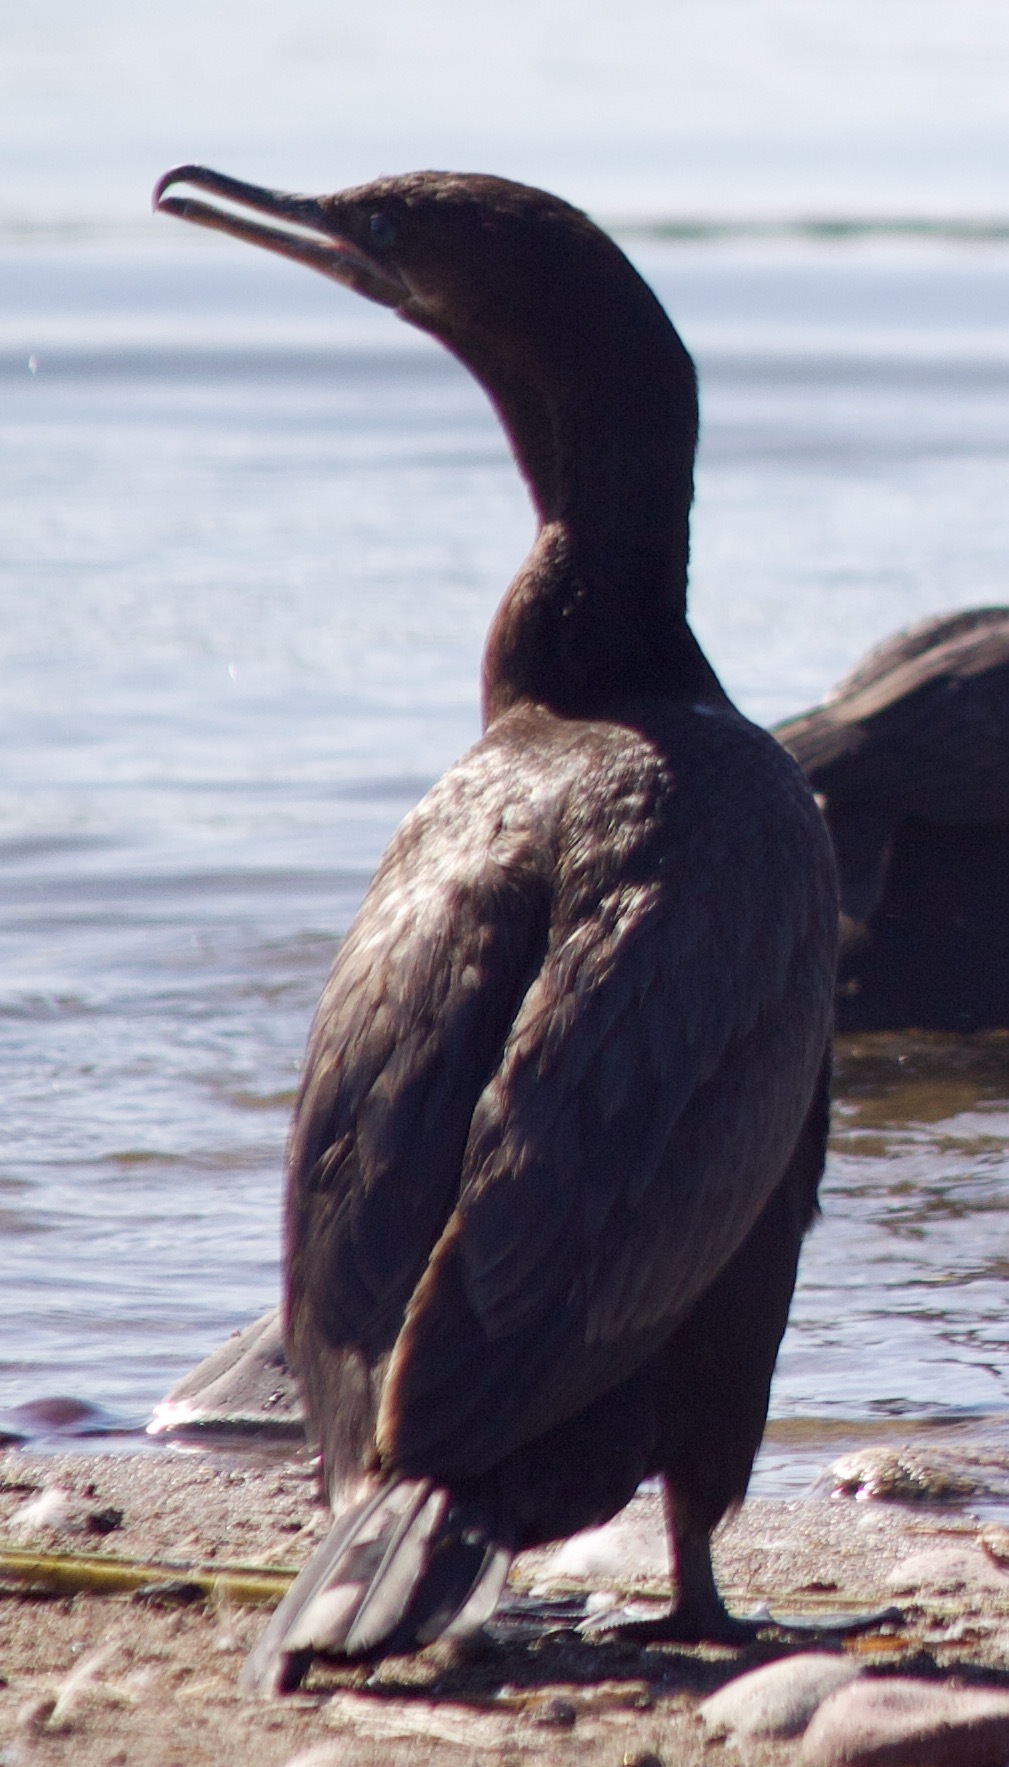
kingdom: Animalia
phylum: Chordata
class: Aves
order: Suliformes
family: Phalacrocoracidae
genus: Phalacrocorax
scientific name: Phalacrocorax brasilianus
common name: Neotropic cormorant
